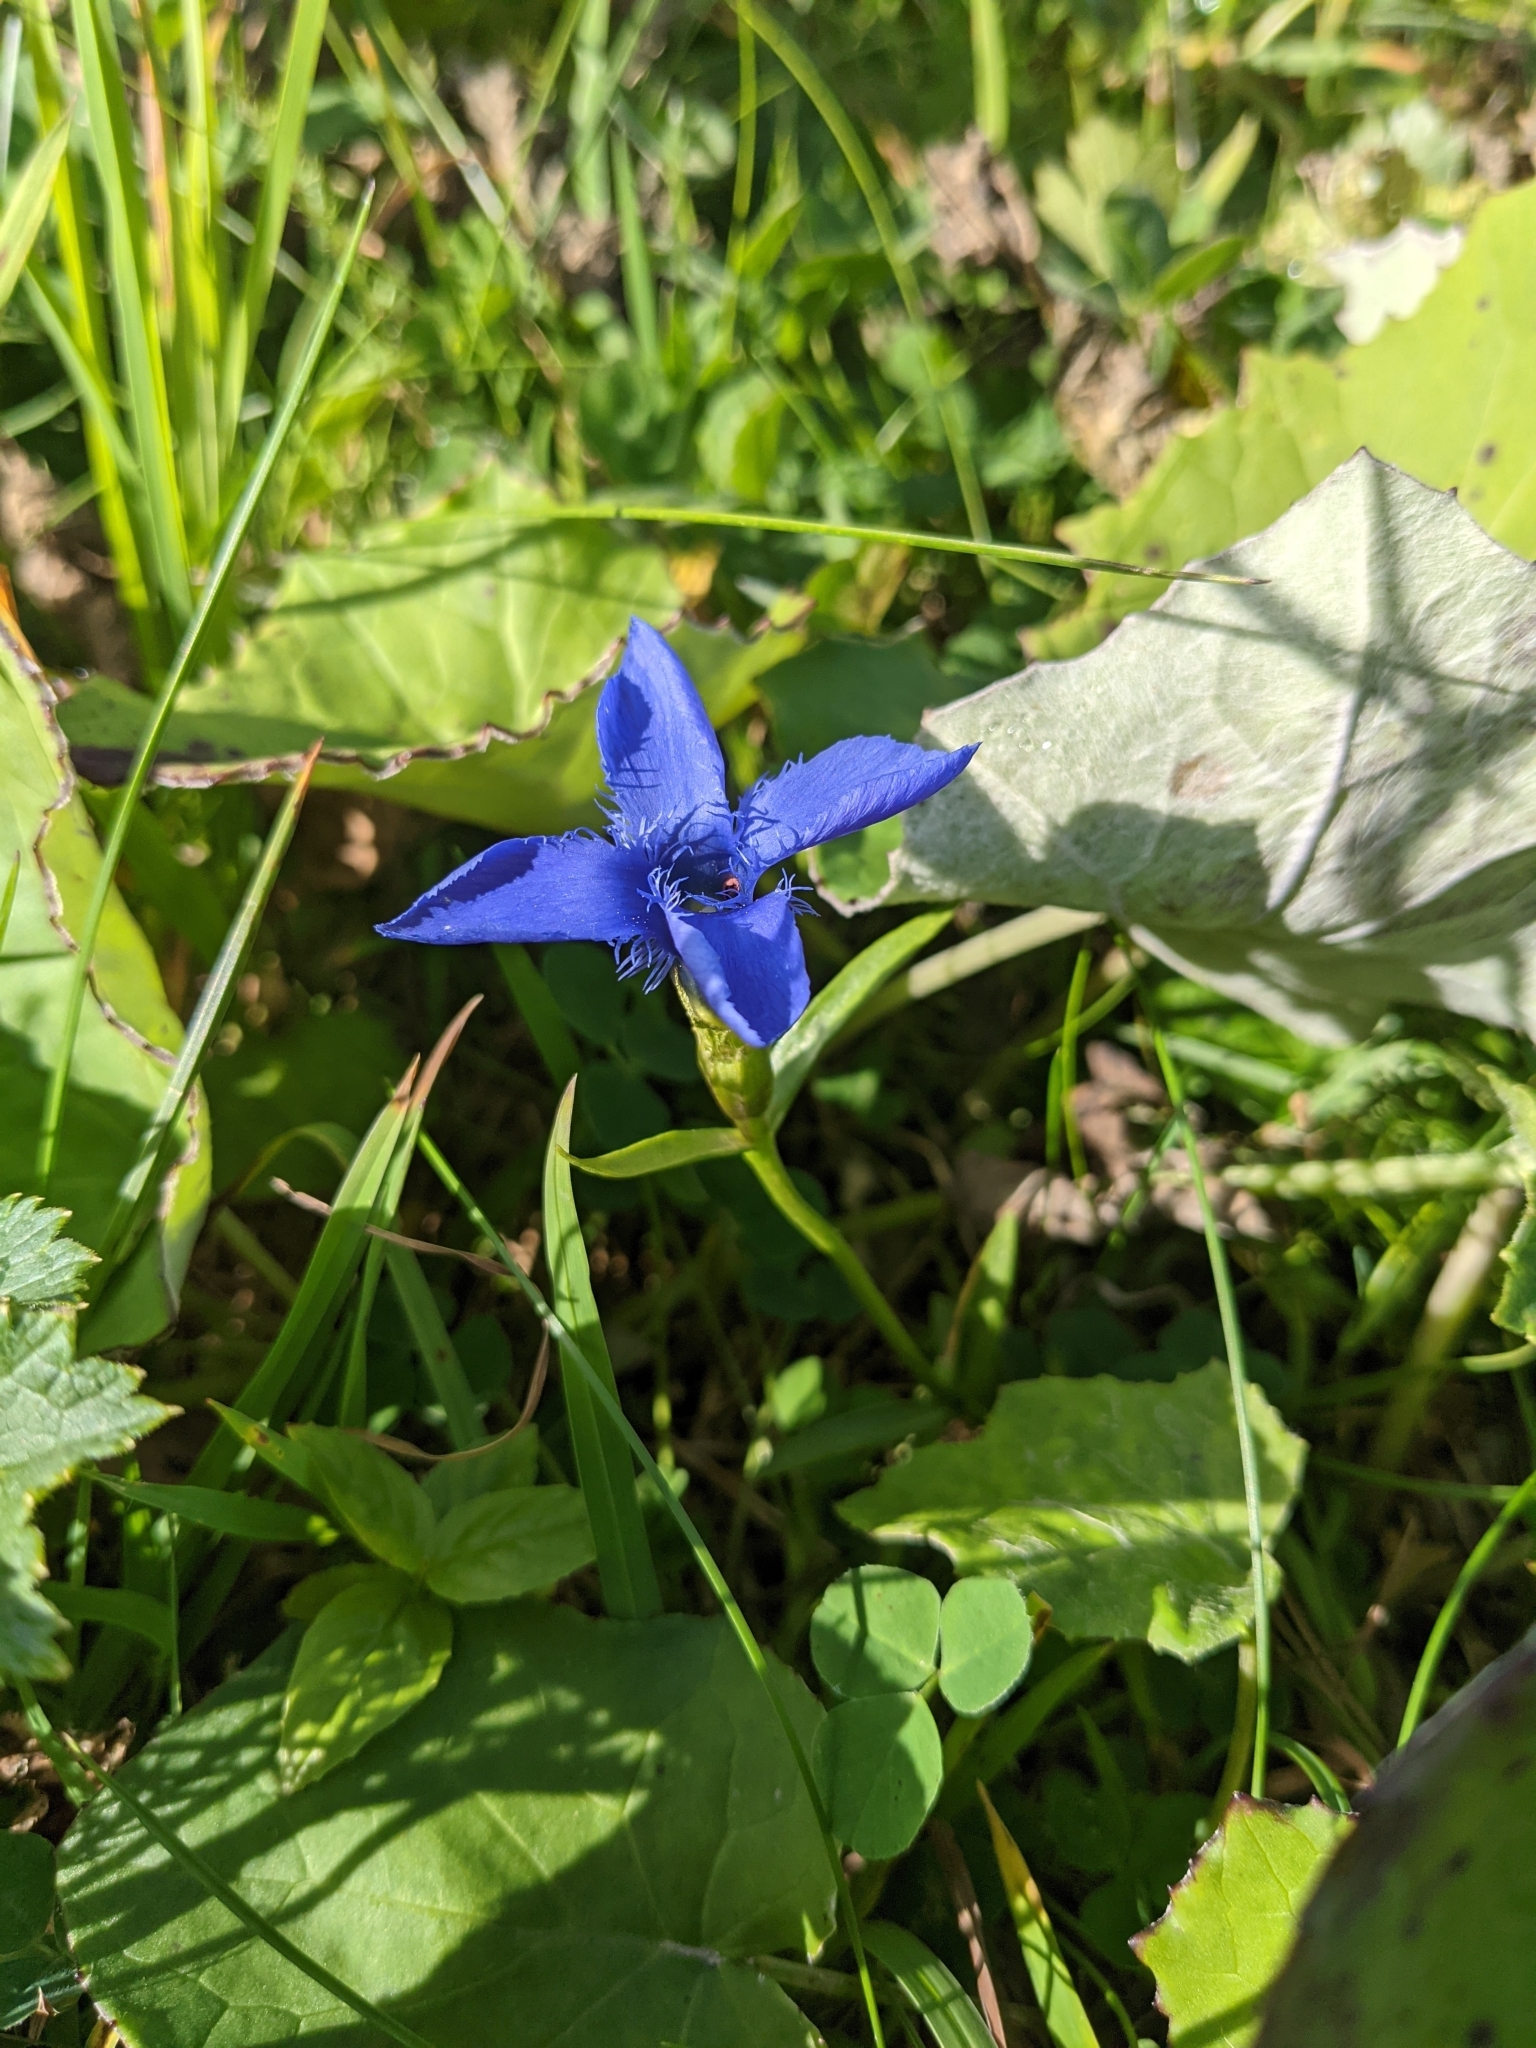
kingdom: Plantae
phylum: Tracheophyta
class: Magnoliopsida
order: Gentianales
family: Gentianaceae
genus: Gentianopsis
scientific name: Gentianopsis ciliata
